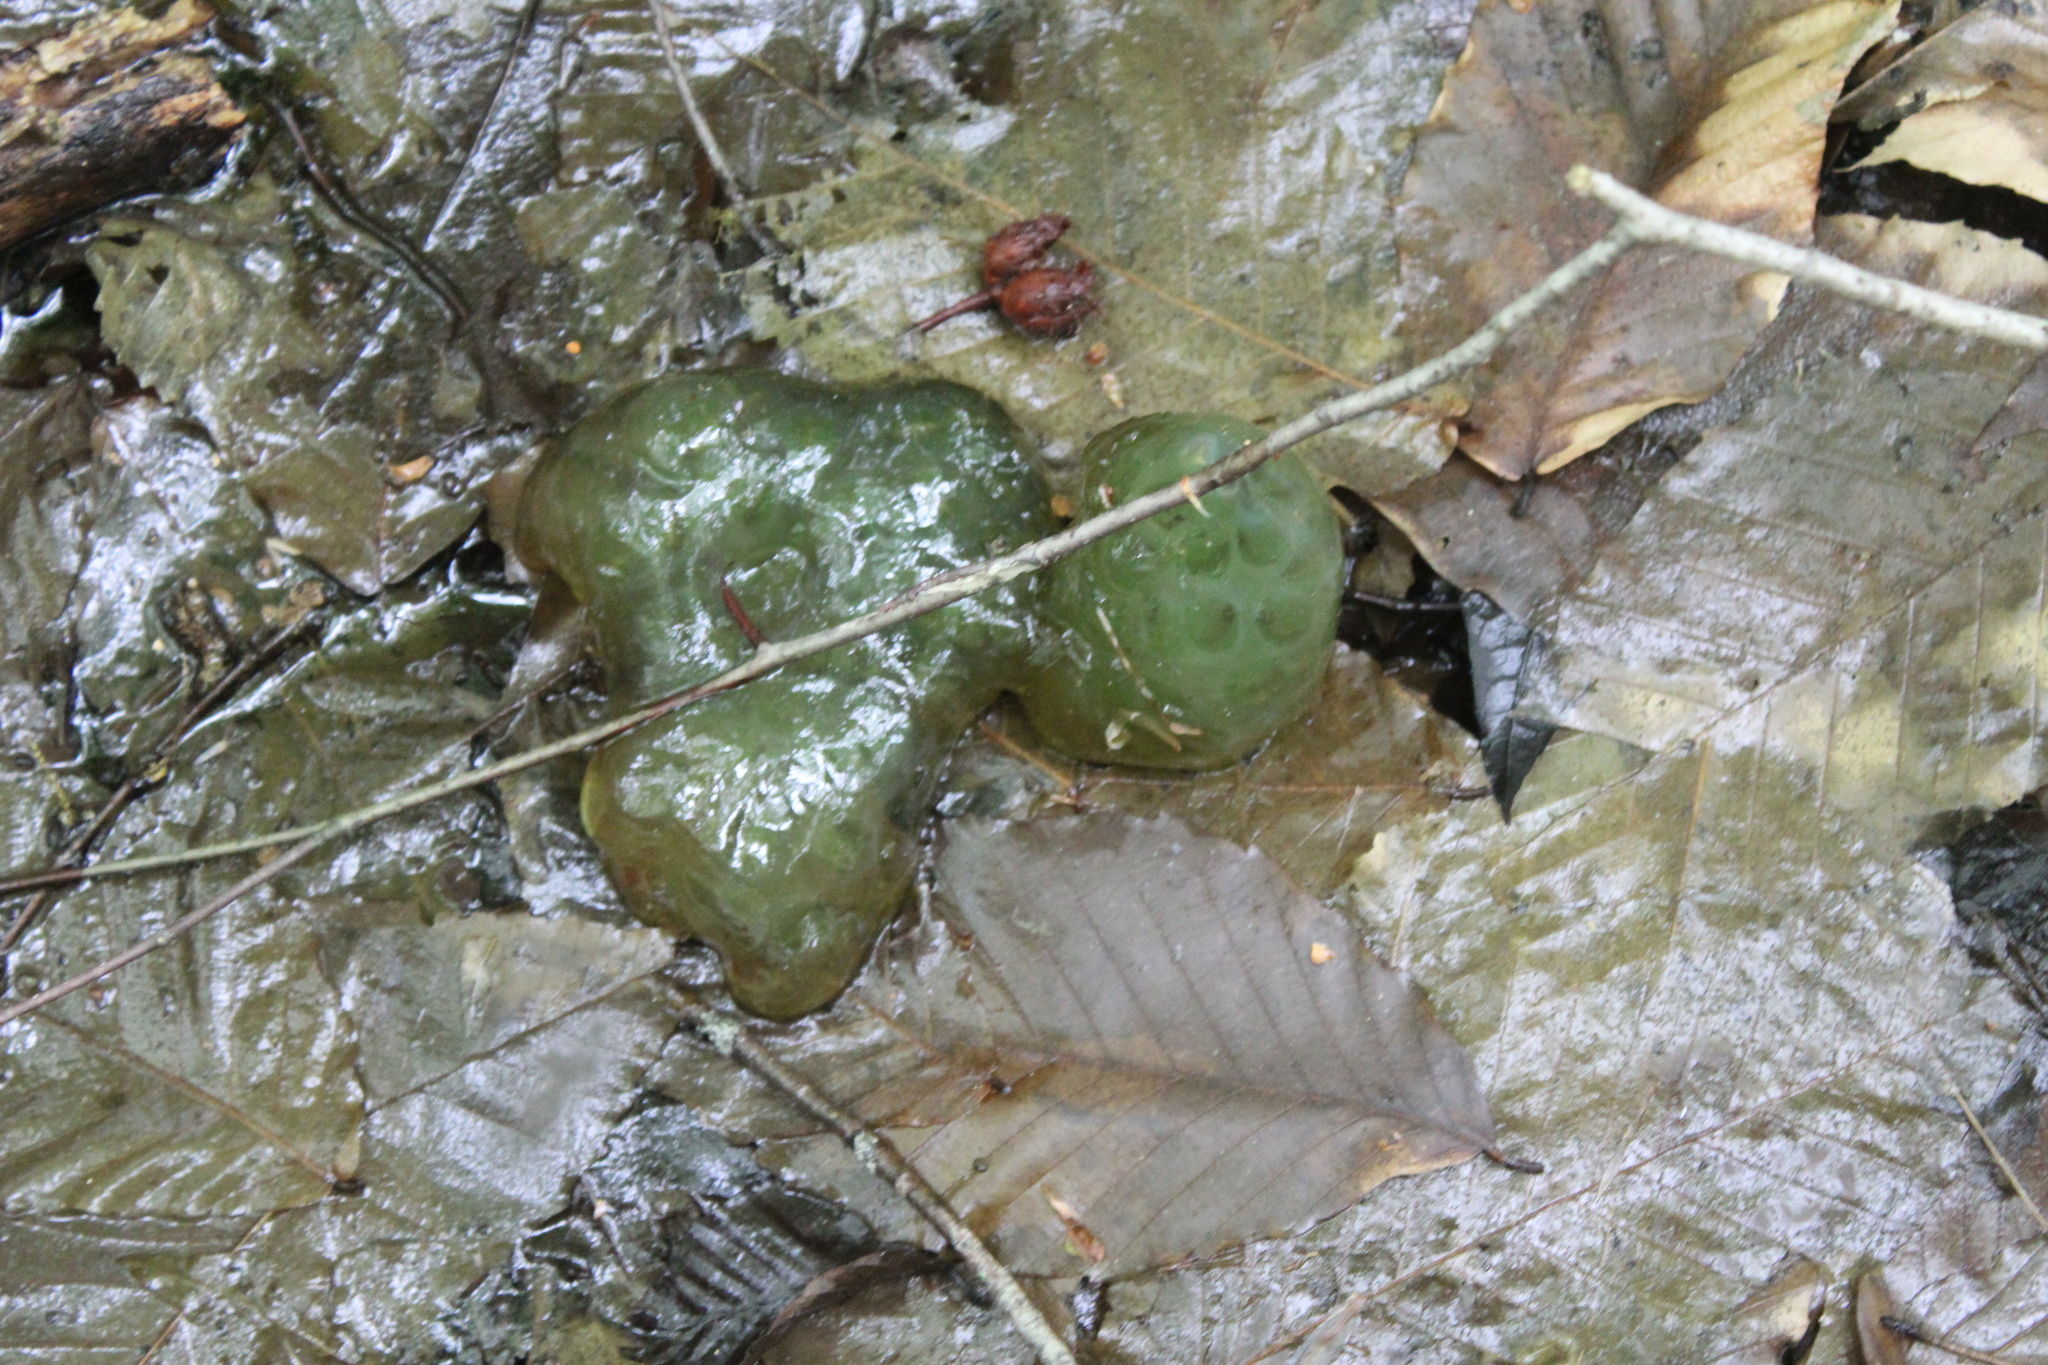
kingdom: Animalia
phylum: Chordata
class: Amphibia
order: Caudata
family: Ambystomatidae
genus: Ambystoma
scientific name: Ambystoma maculatum
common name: Spotted salamander
